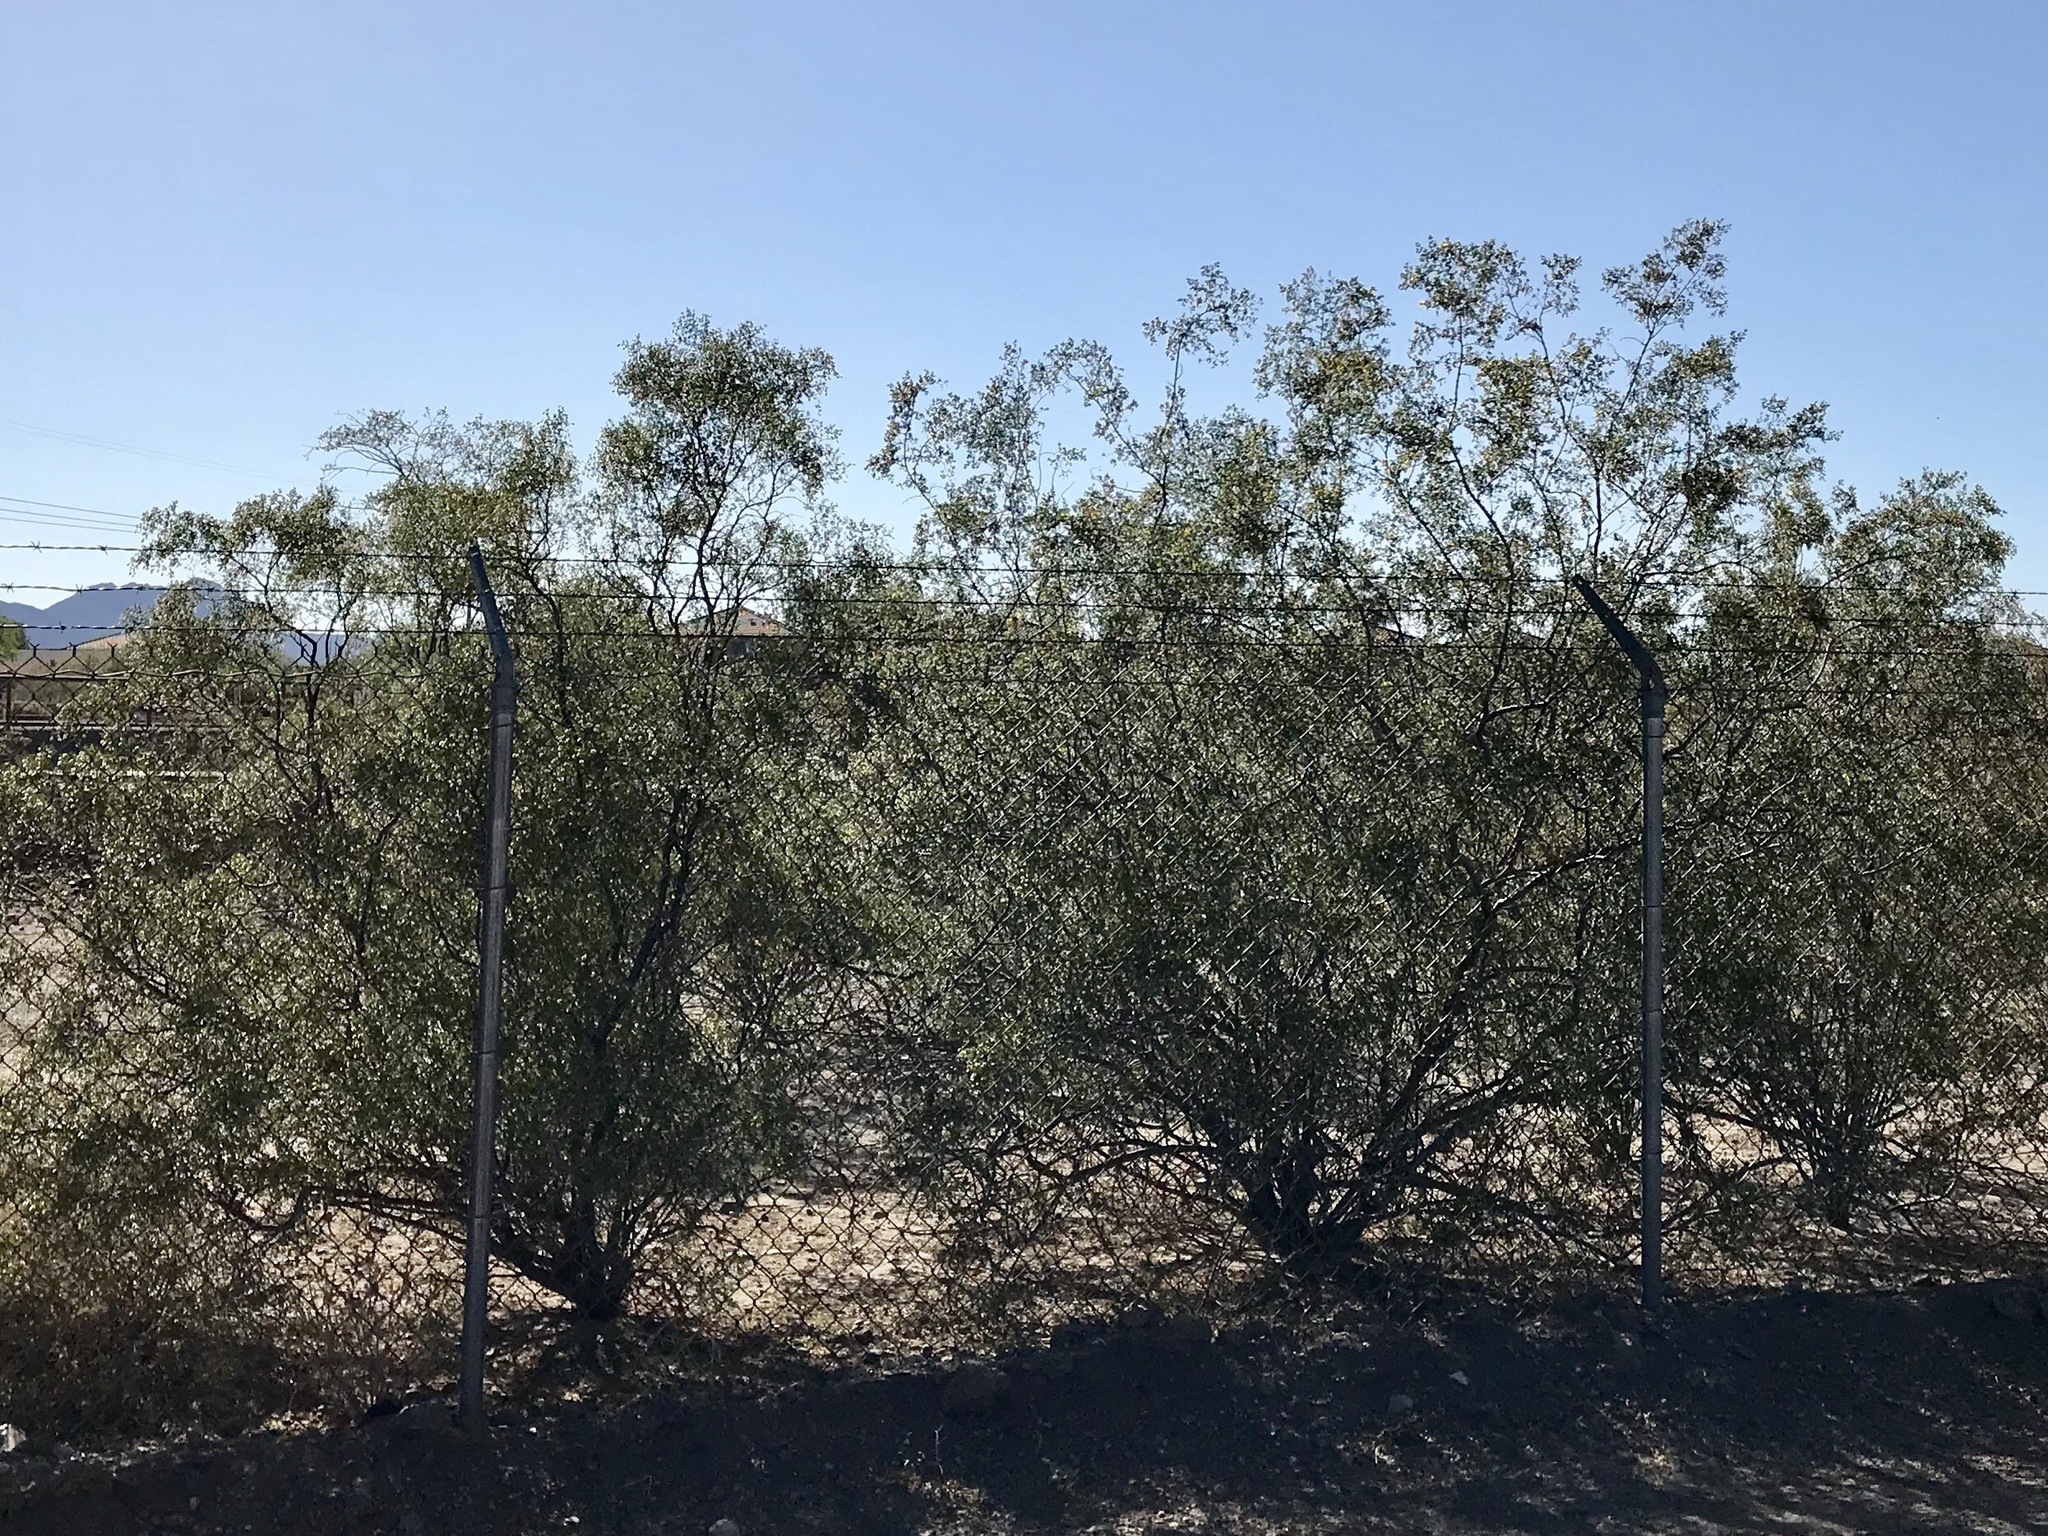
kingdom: Plantae
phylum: Tracheophyta
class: Magnoliopsida
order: Zygophyllales
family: Zygophyllaceae
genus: Larrea
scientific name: Larrea tridentata
